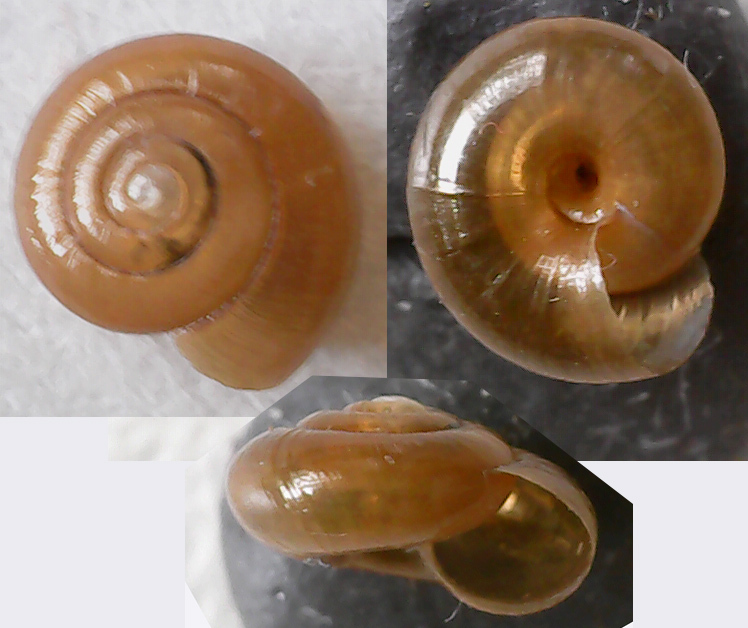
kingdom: Animalia
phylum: Mollusca
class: Gastropoda
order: Stylommatophora
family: Gastrodontidae
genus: Zonitoides
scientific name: Zonitoides nitidus
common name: Shiny glass snail
